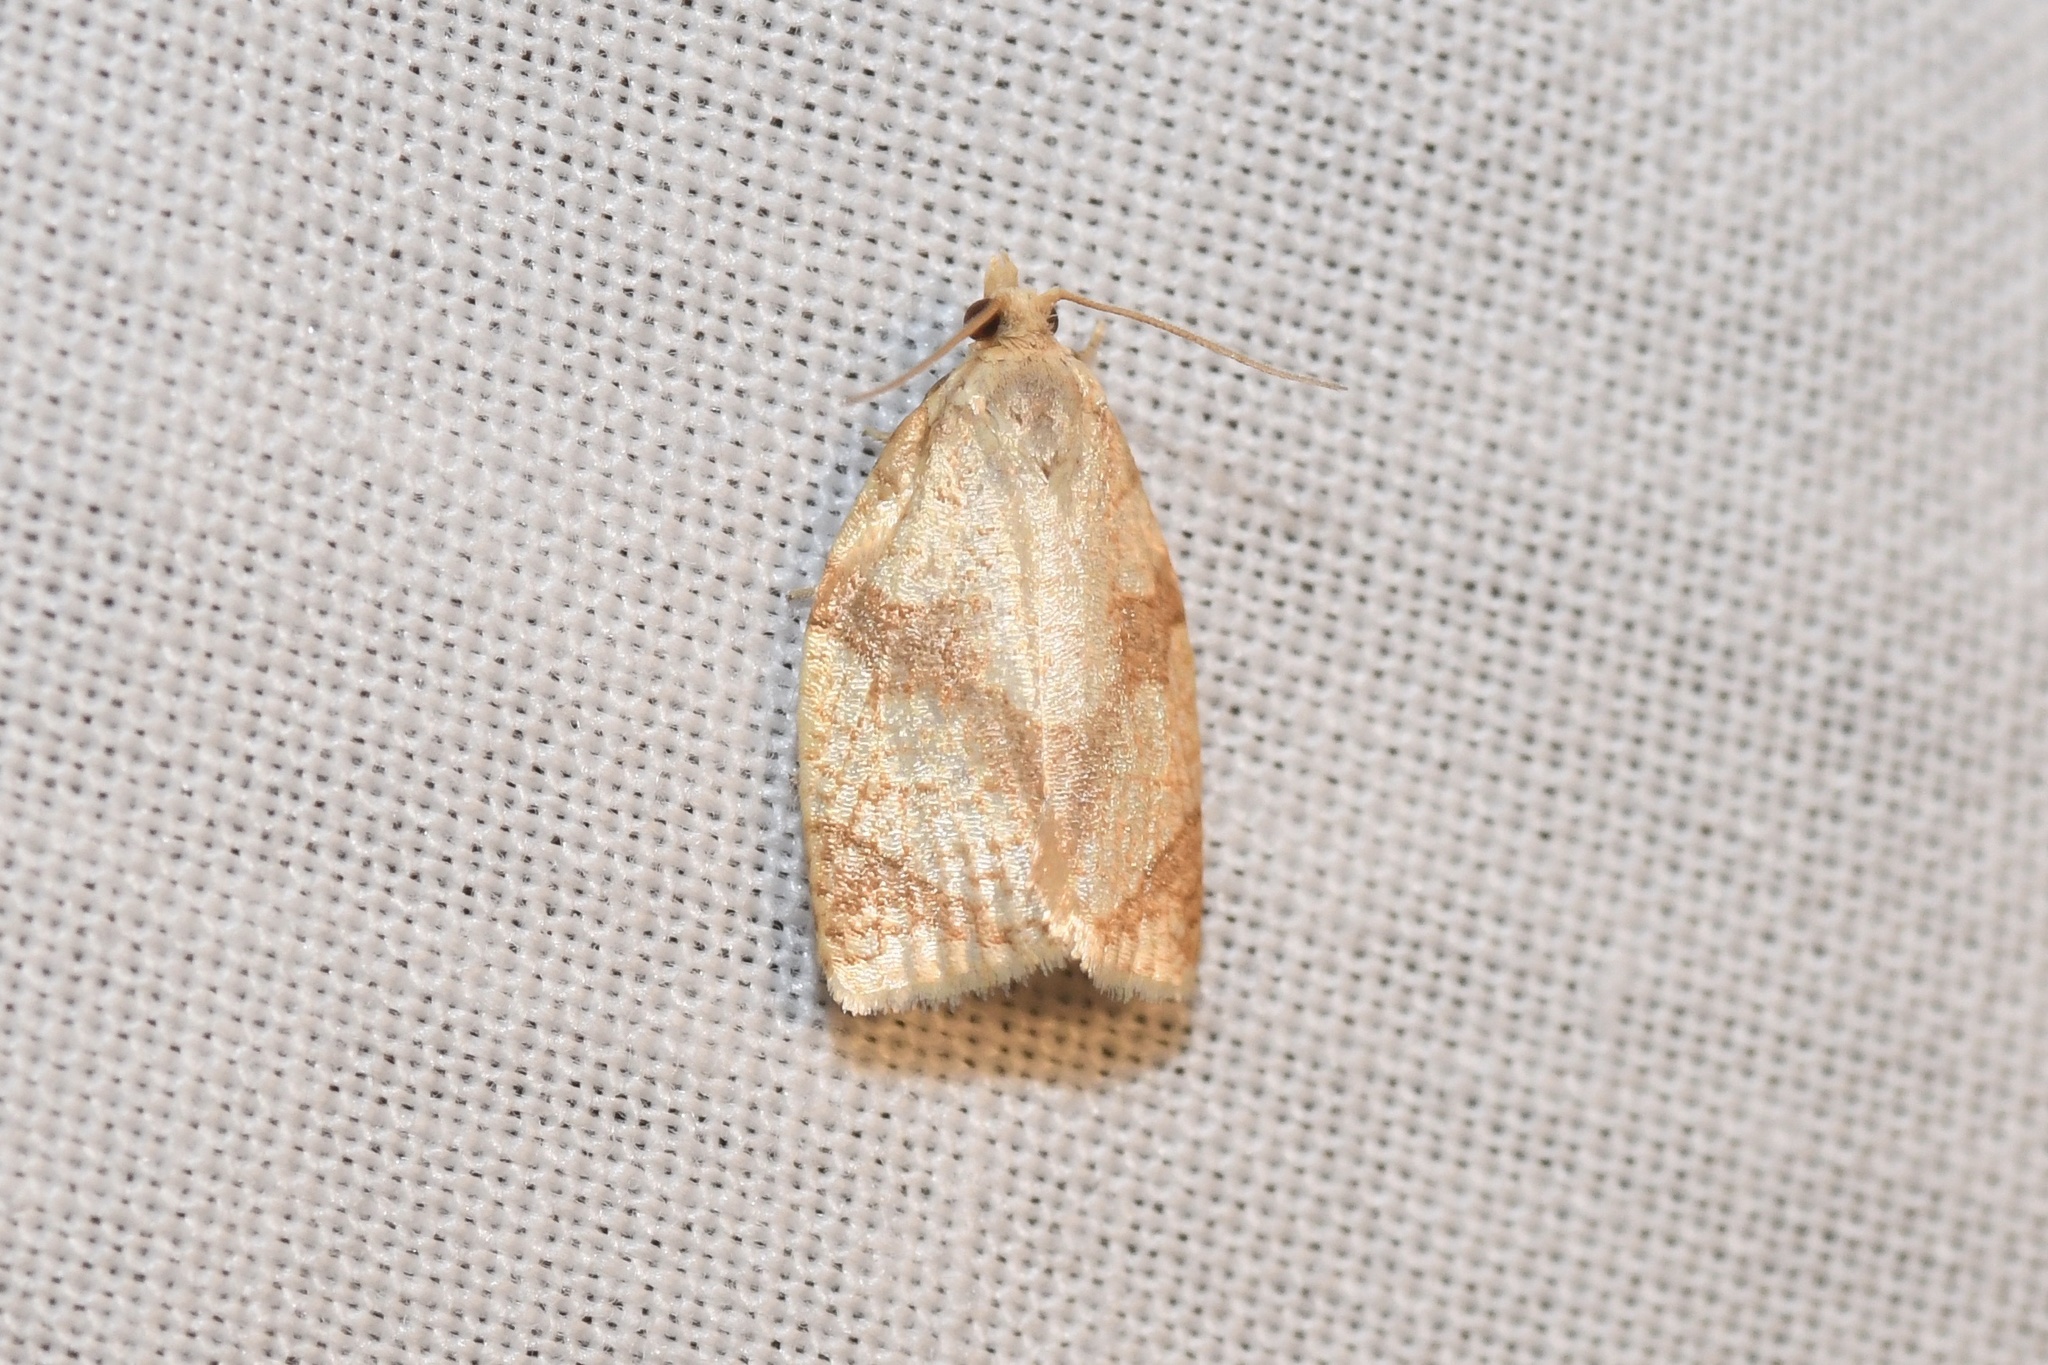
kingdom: Animalia
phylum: Arthropoda
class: Insecta
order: Lepidoptera
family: Tortricidae
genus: Adoxophyes
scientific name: Adoxophyes negundana
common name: Shimmering gold adoxophyes moth
